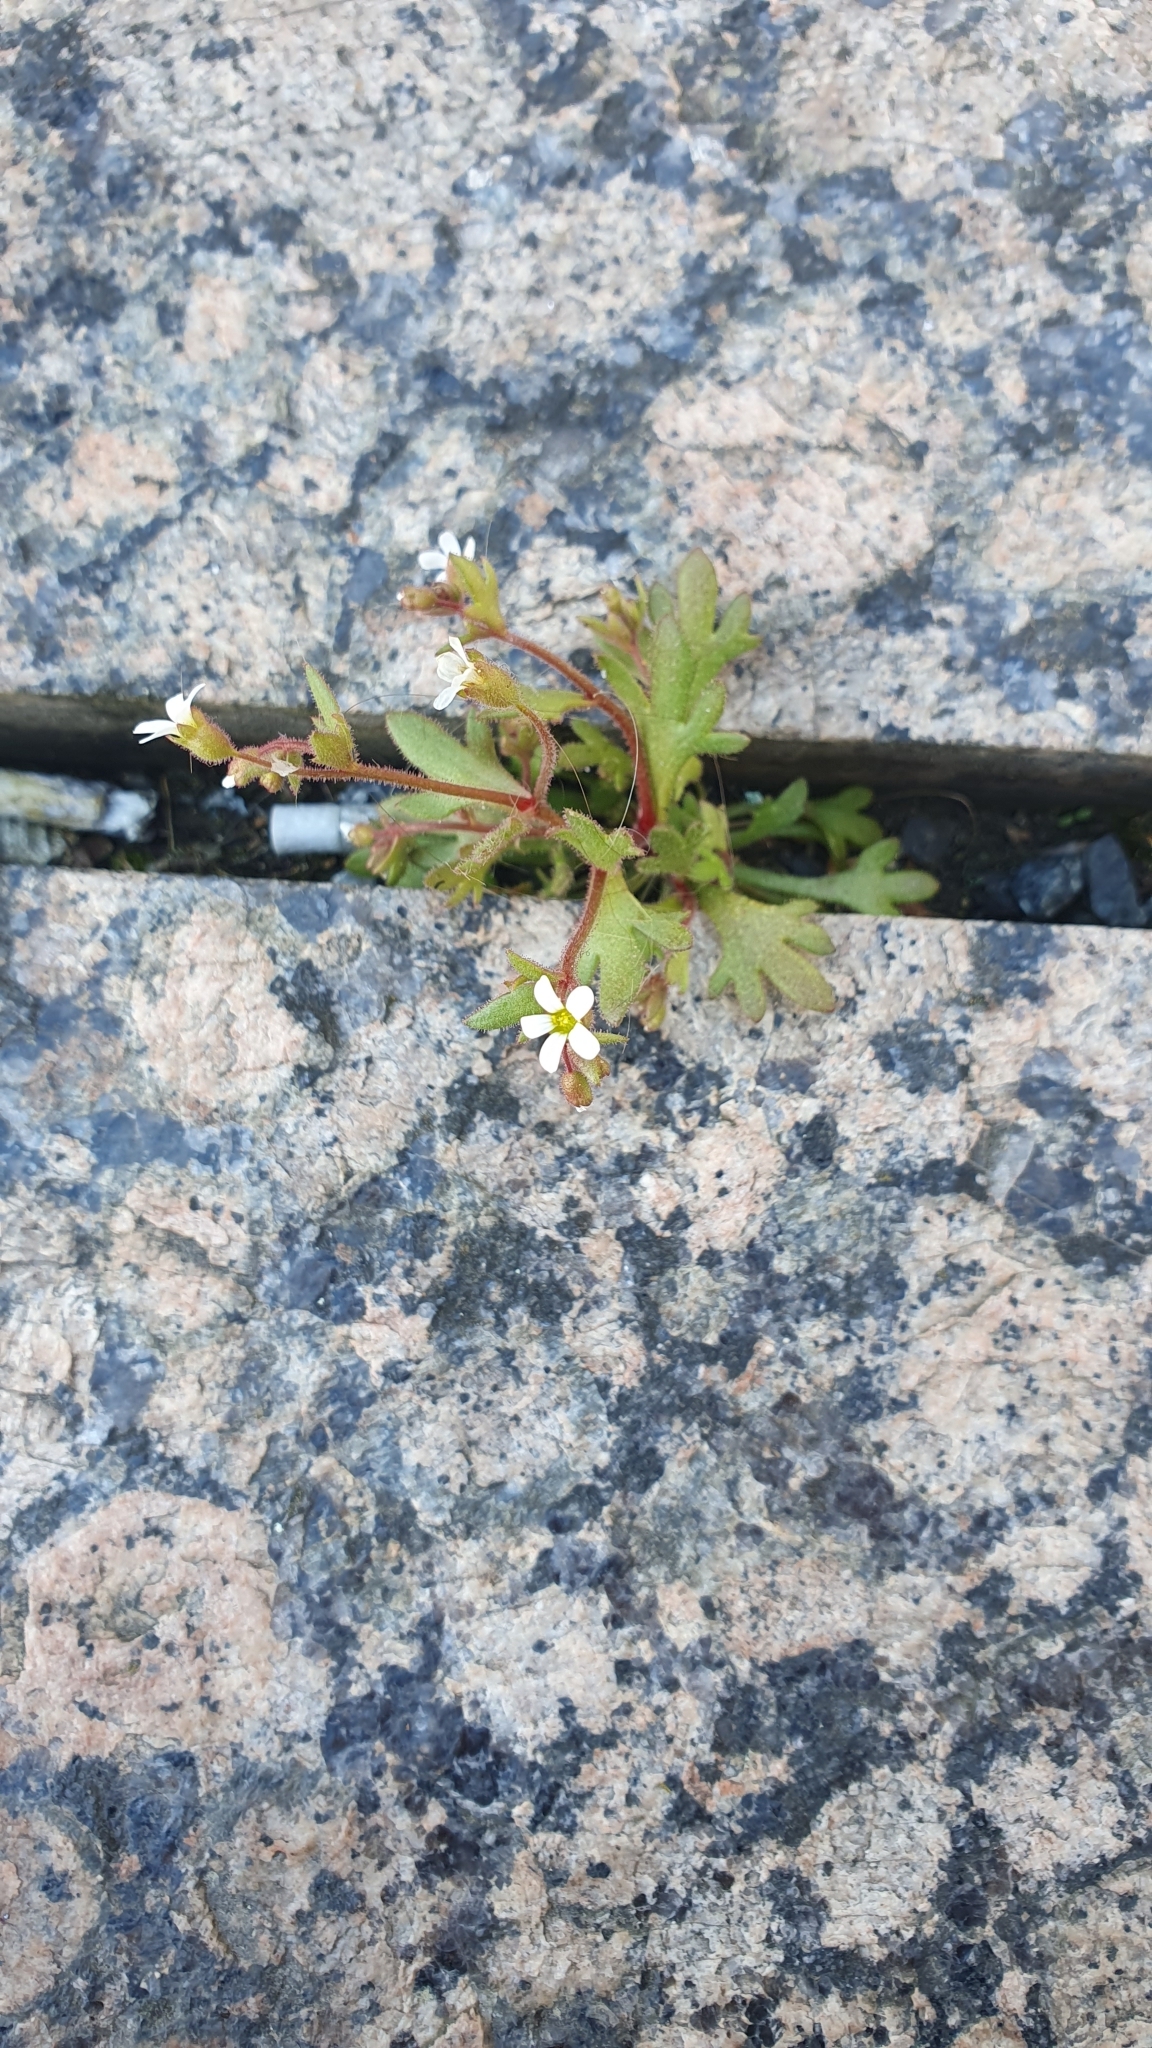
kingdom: Plantae
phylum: Tracheophyta
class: Magnoliopsida
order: Saxifragales
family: Saxifragaceae
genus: Saxifraga
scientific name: Saxifraga tridactylites
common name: Rue-leaved saxifrage
